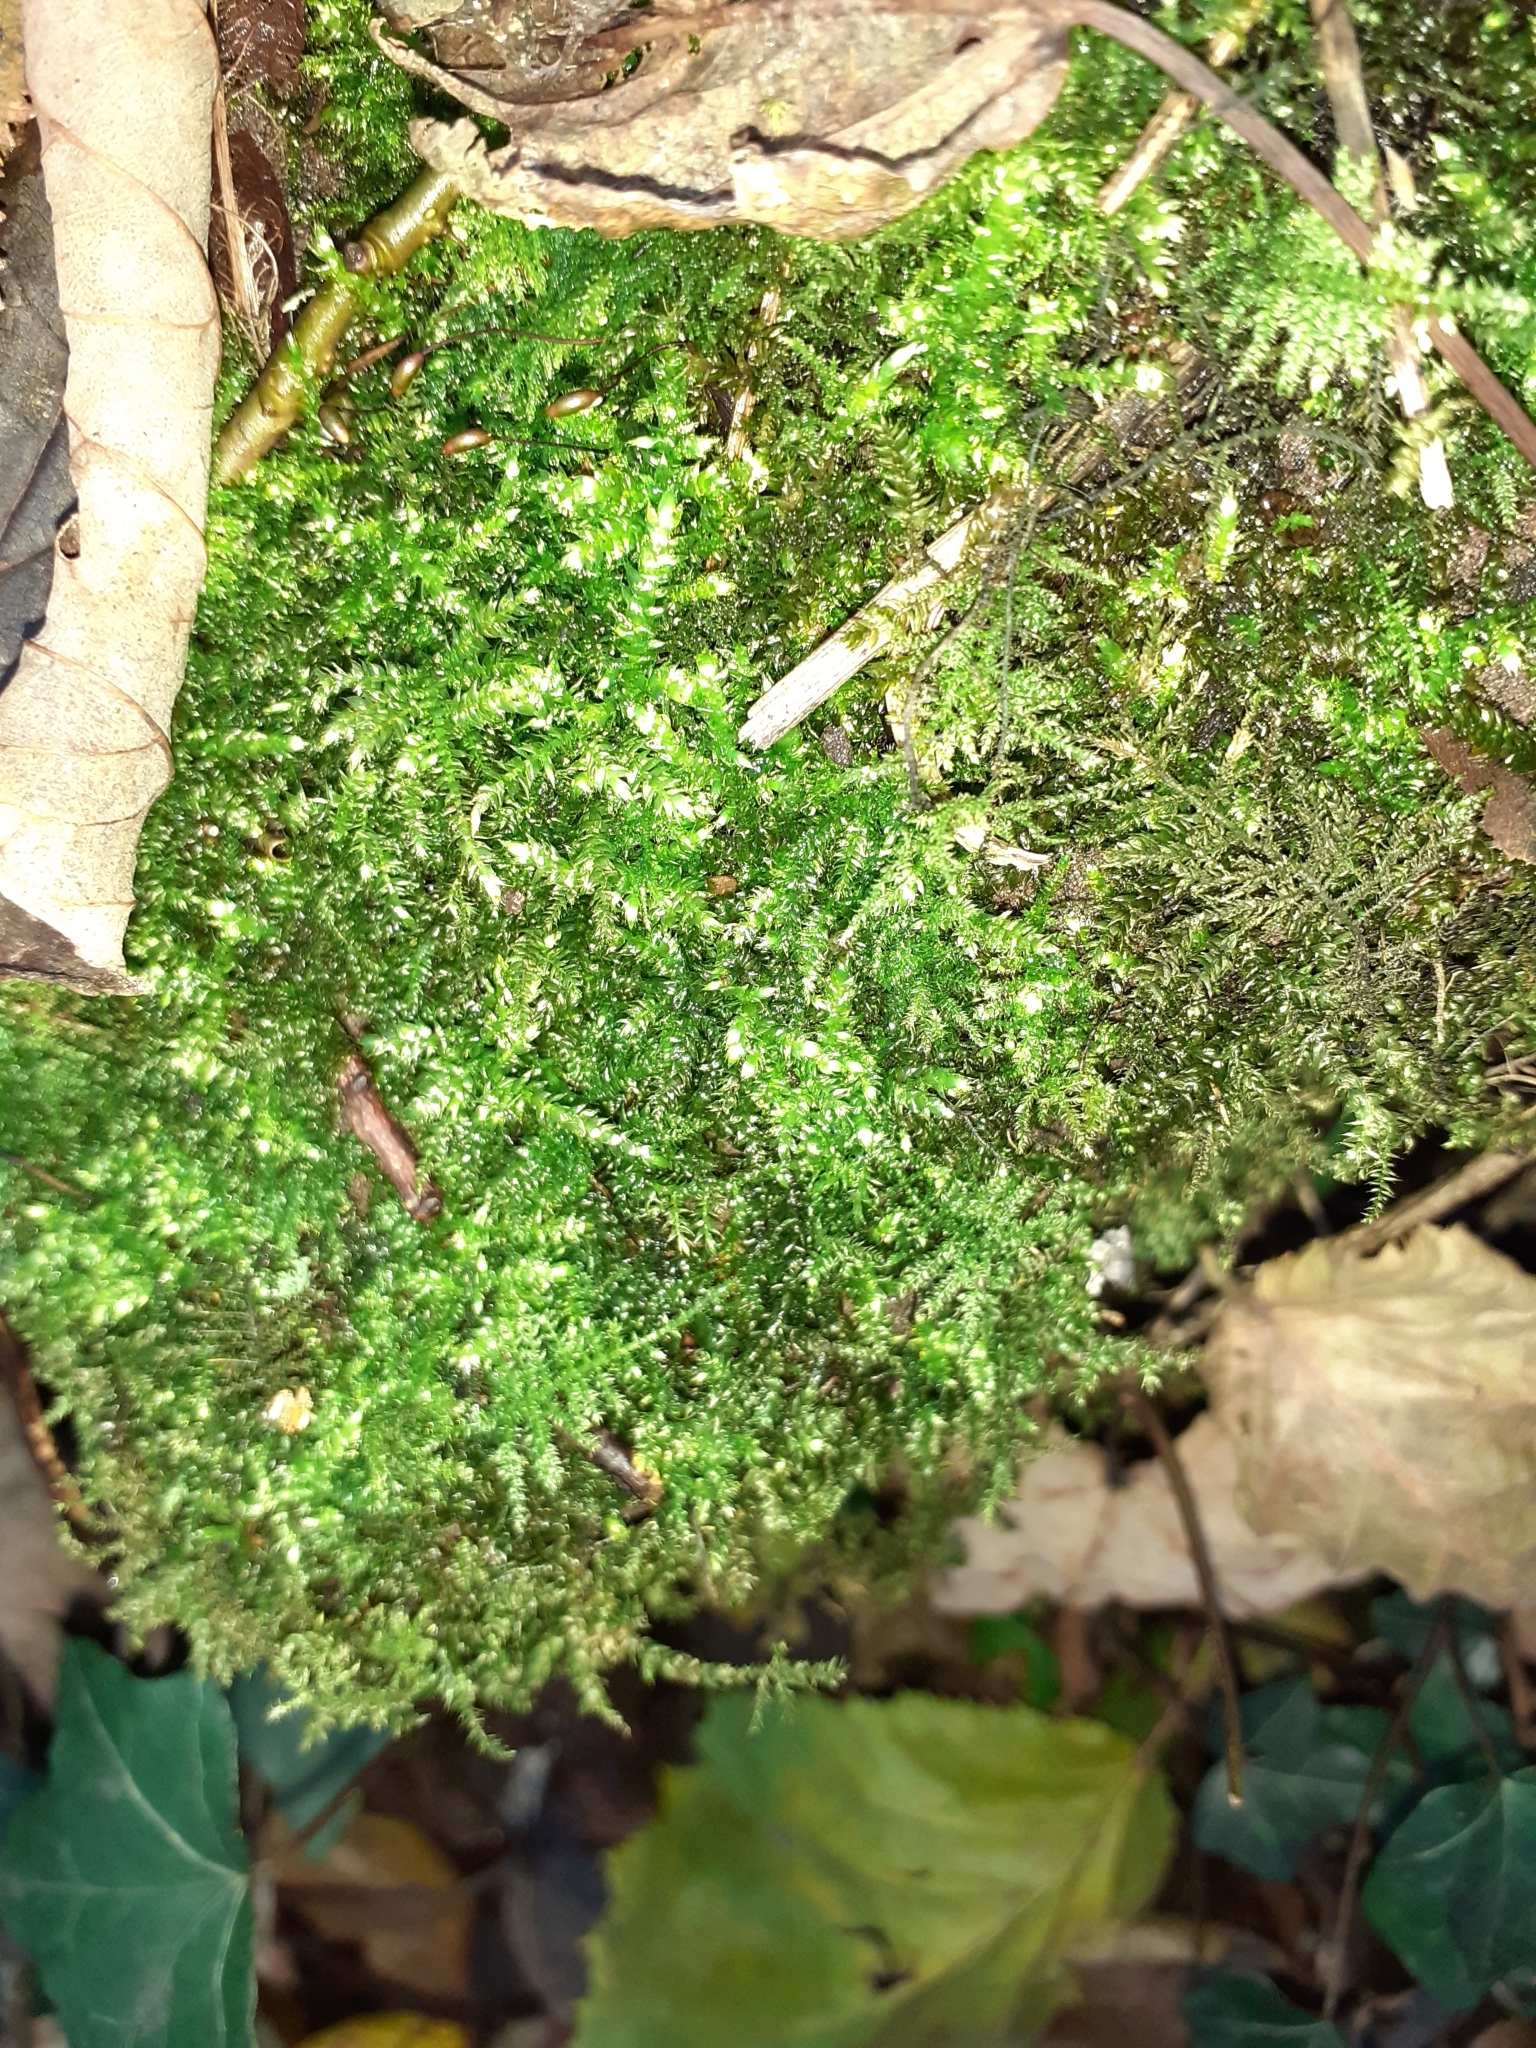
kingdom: Plantae
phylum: Bryophyta
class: Bryopsida
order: Hypnales
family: Brachytheciaceae
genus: Kindbergia
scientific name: Kindbergia praelonga
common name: Slender beaked moss
